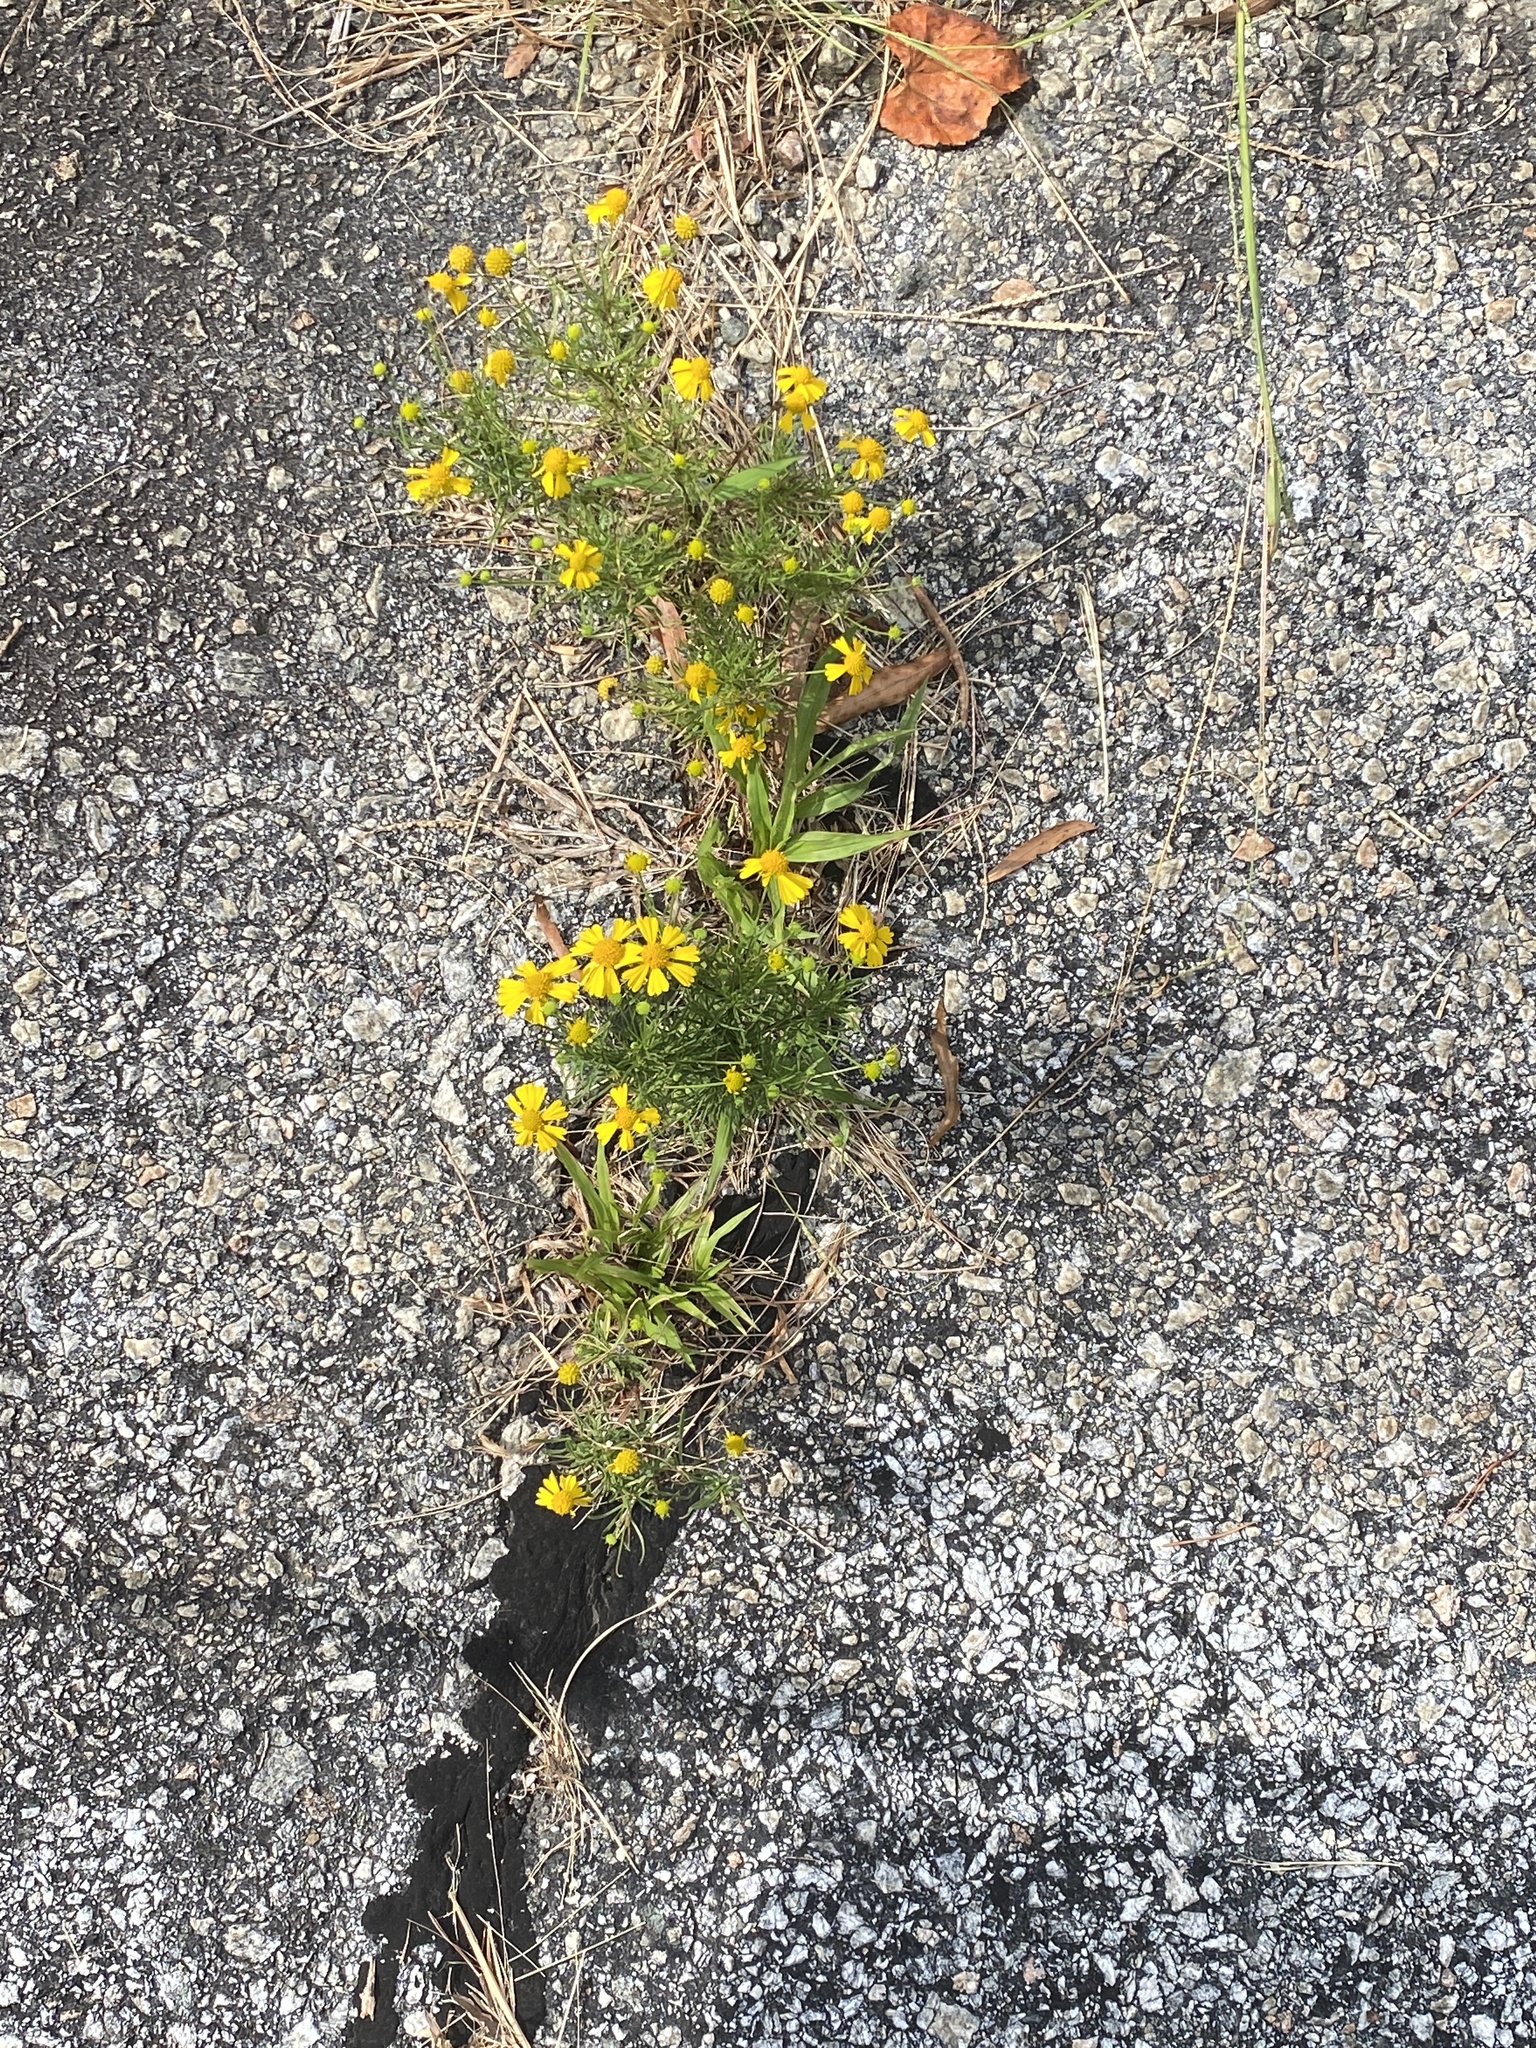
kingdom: Plantae
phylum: Tracheophyta
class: Magnoliopsida
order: Asterales
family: Asteraceae
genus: Helenium
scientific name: Helenium amarum
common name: Bitter sneezeweed
